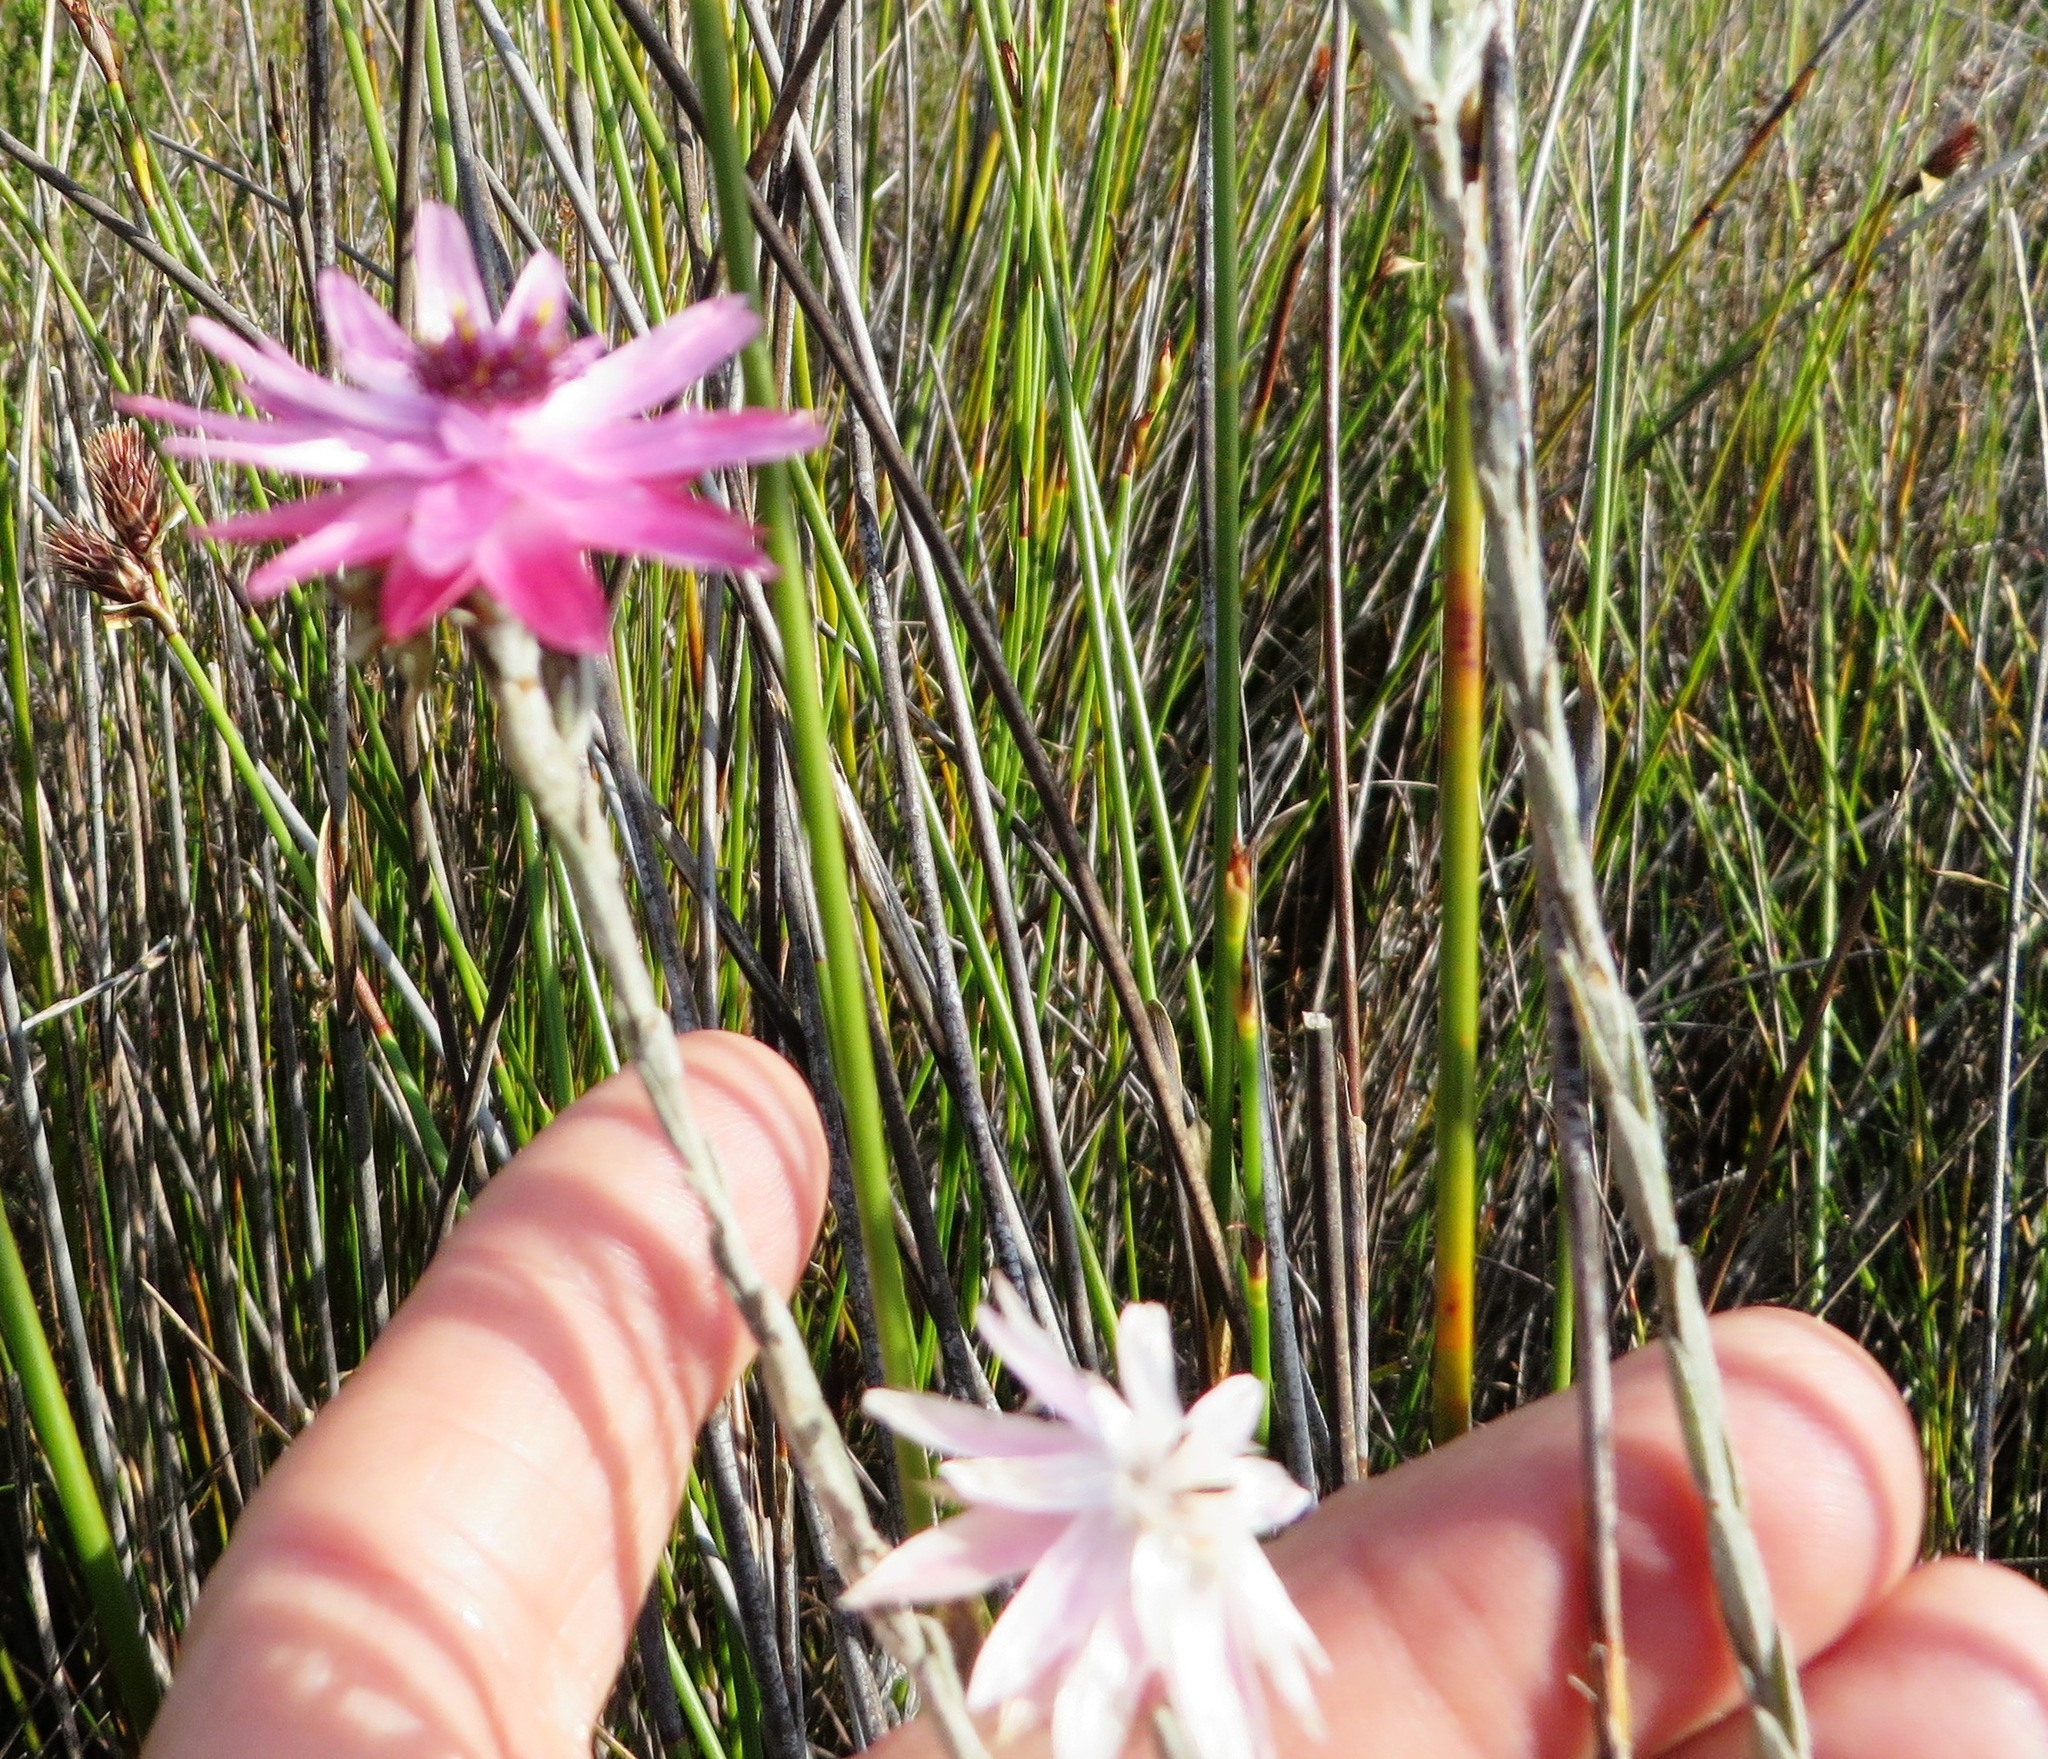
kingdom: Plantae
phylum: Tracheophyta
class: Magnoliopsida
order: Asterales
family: Asteraceae
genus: Syncarpha
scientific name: Syncarpha canescens
